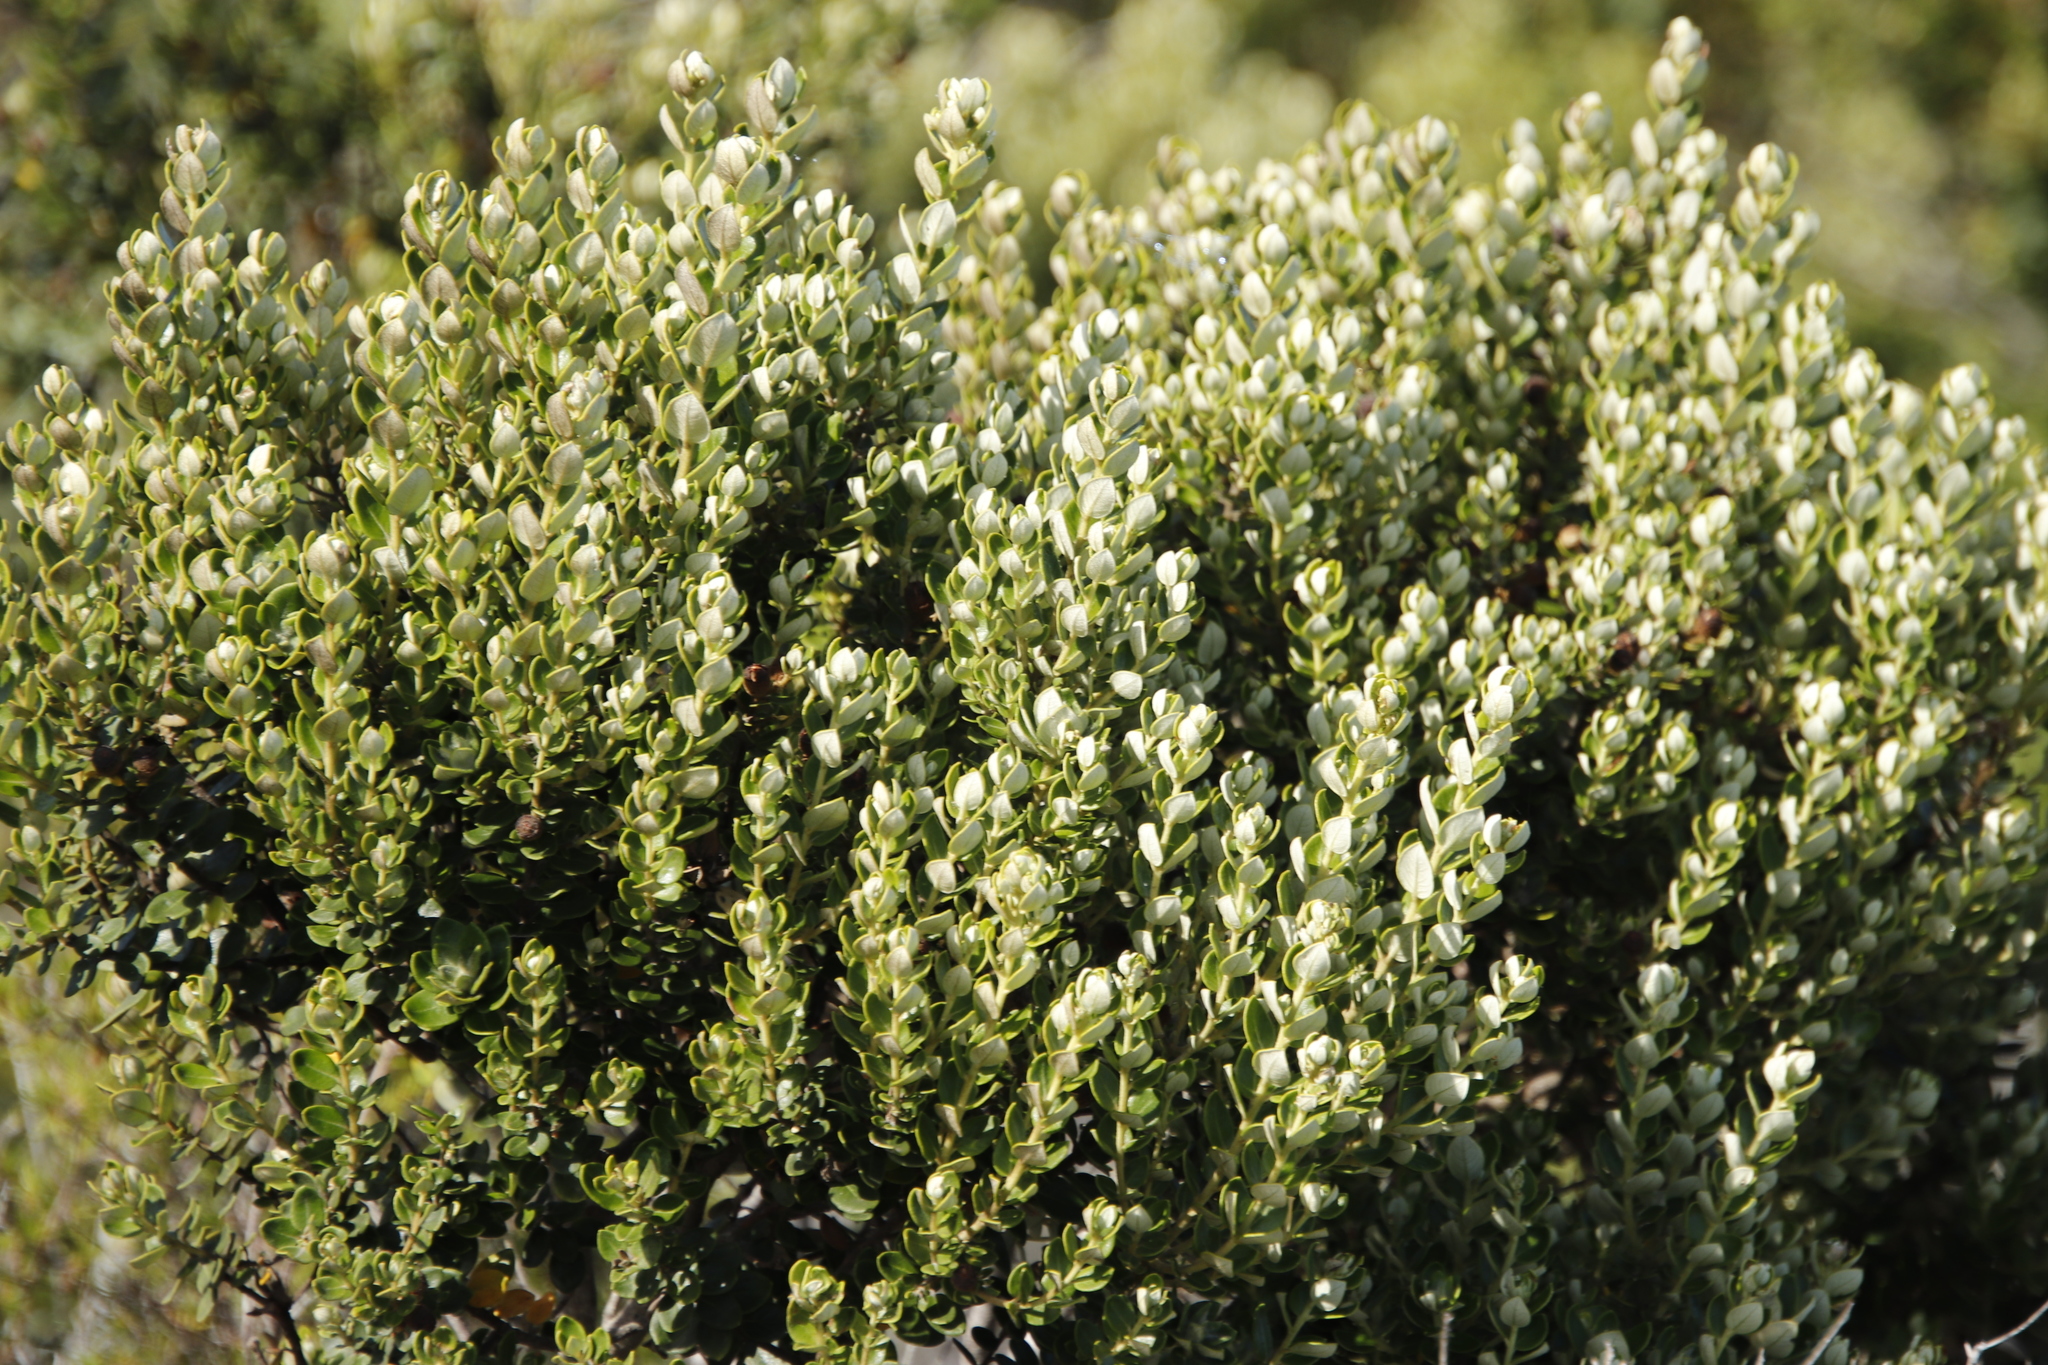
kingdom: Plantae
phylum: Tracheophyta
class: Magnoliopsida
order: Rosales
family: Rhamnaceae
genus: Phylica
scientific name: Phylica buxifolia
